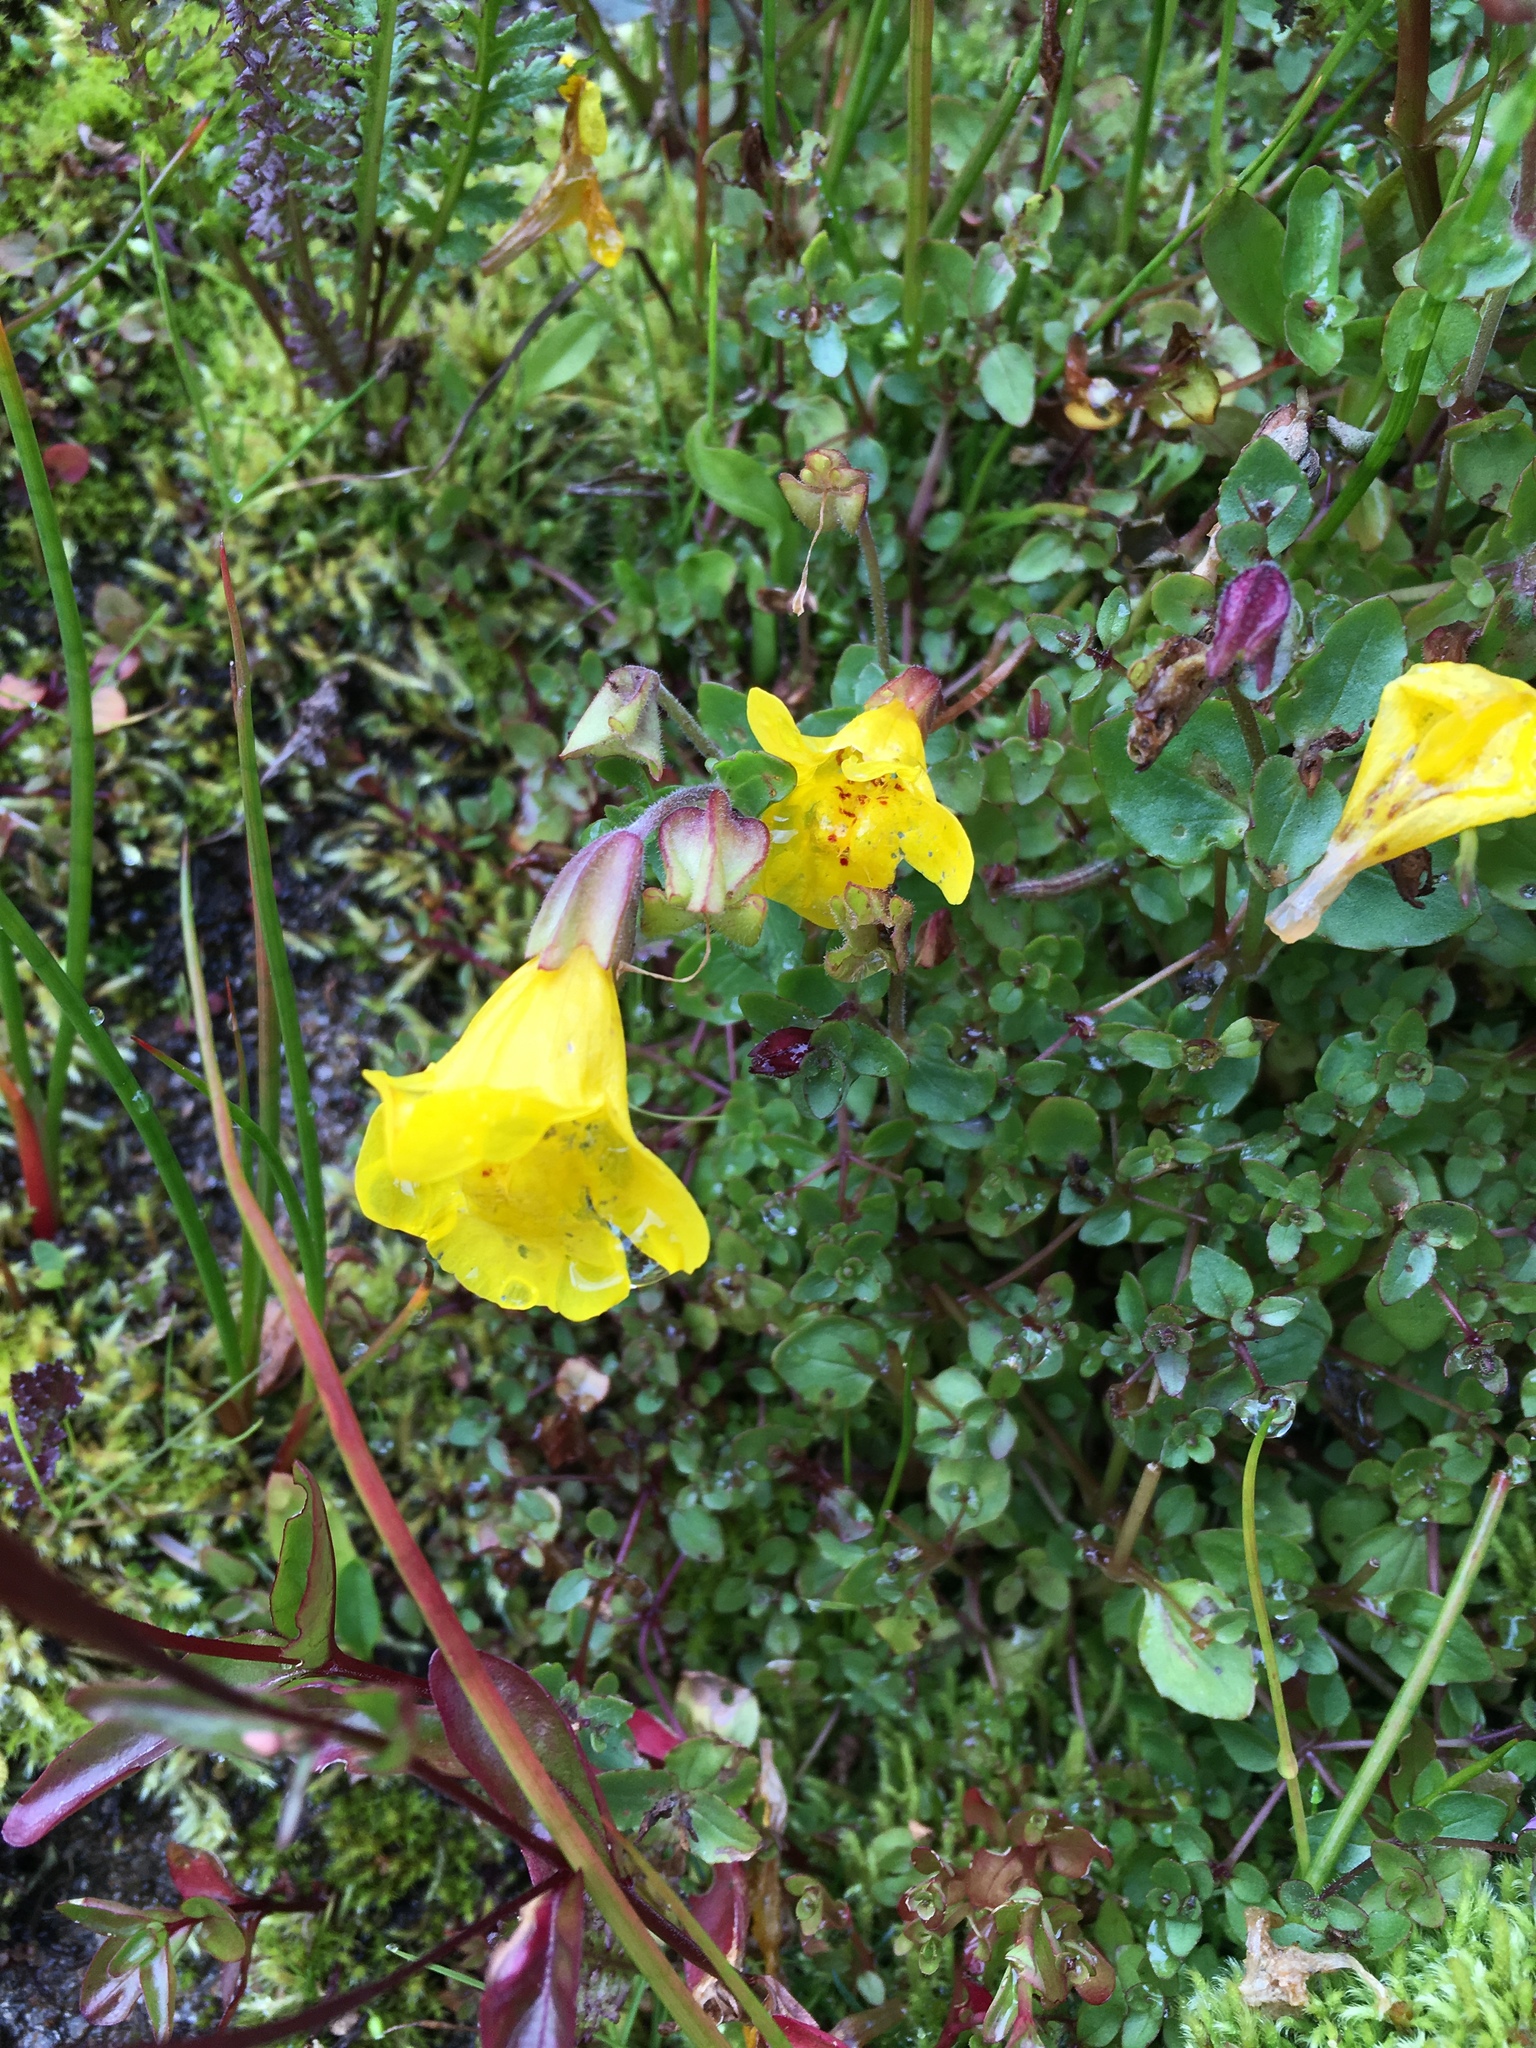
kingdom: Plantae
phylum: Tracheophyta
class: Magnoliopsida
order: Lamiales
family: Phrymaceae
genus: Erythranthe
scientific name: Erythranthe caespitosa
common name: Subalpine monkeyflower
